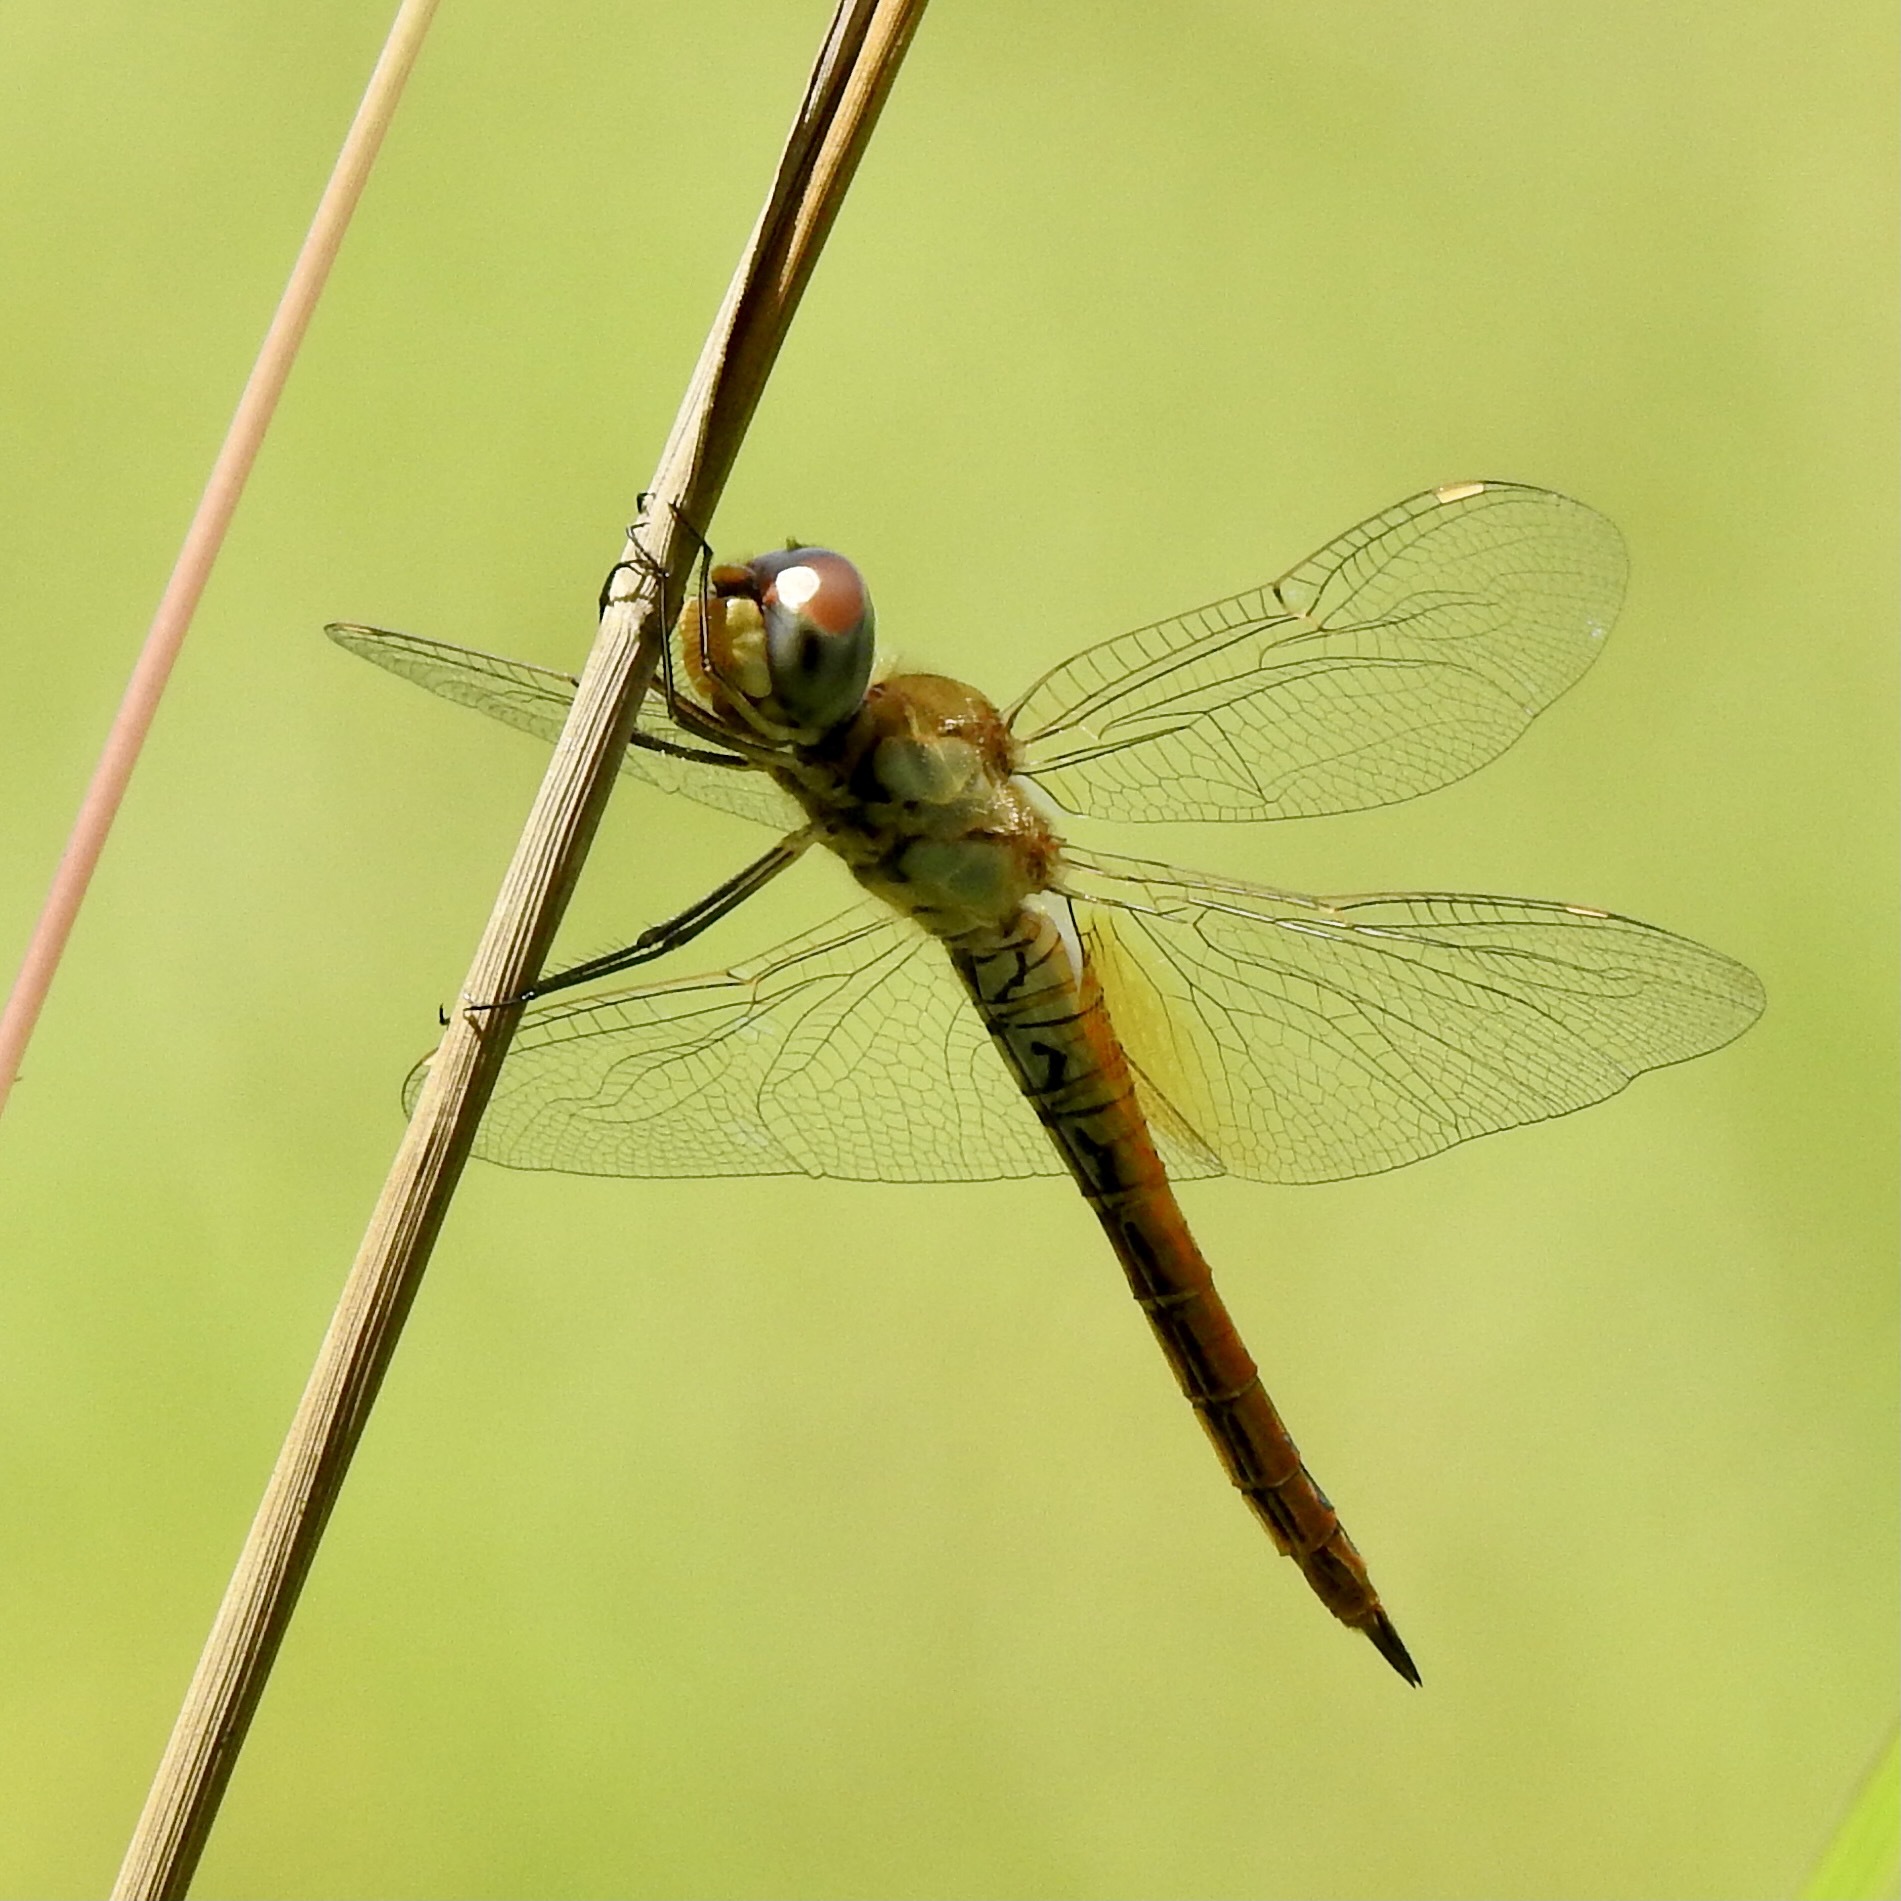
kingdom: Animalia
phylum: Arthropoda
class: Insecta
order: Odonata
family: Libellulidae
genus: Pantala
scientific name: Pantala flavescens
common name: Wandering glider
